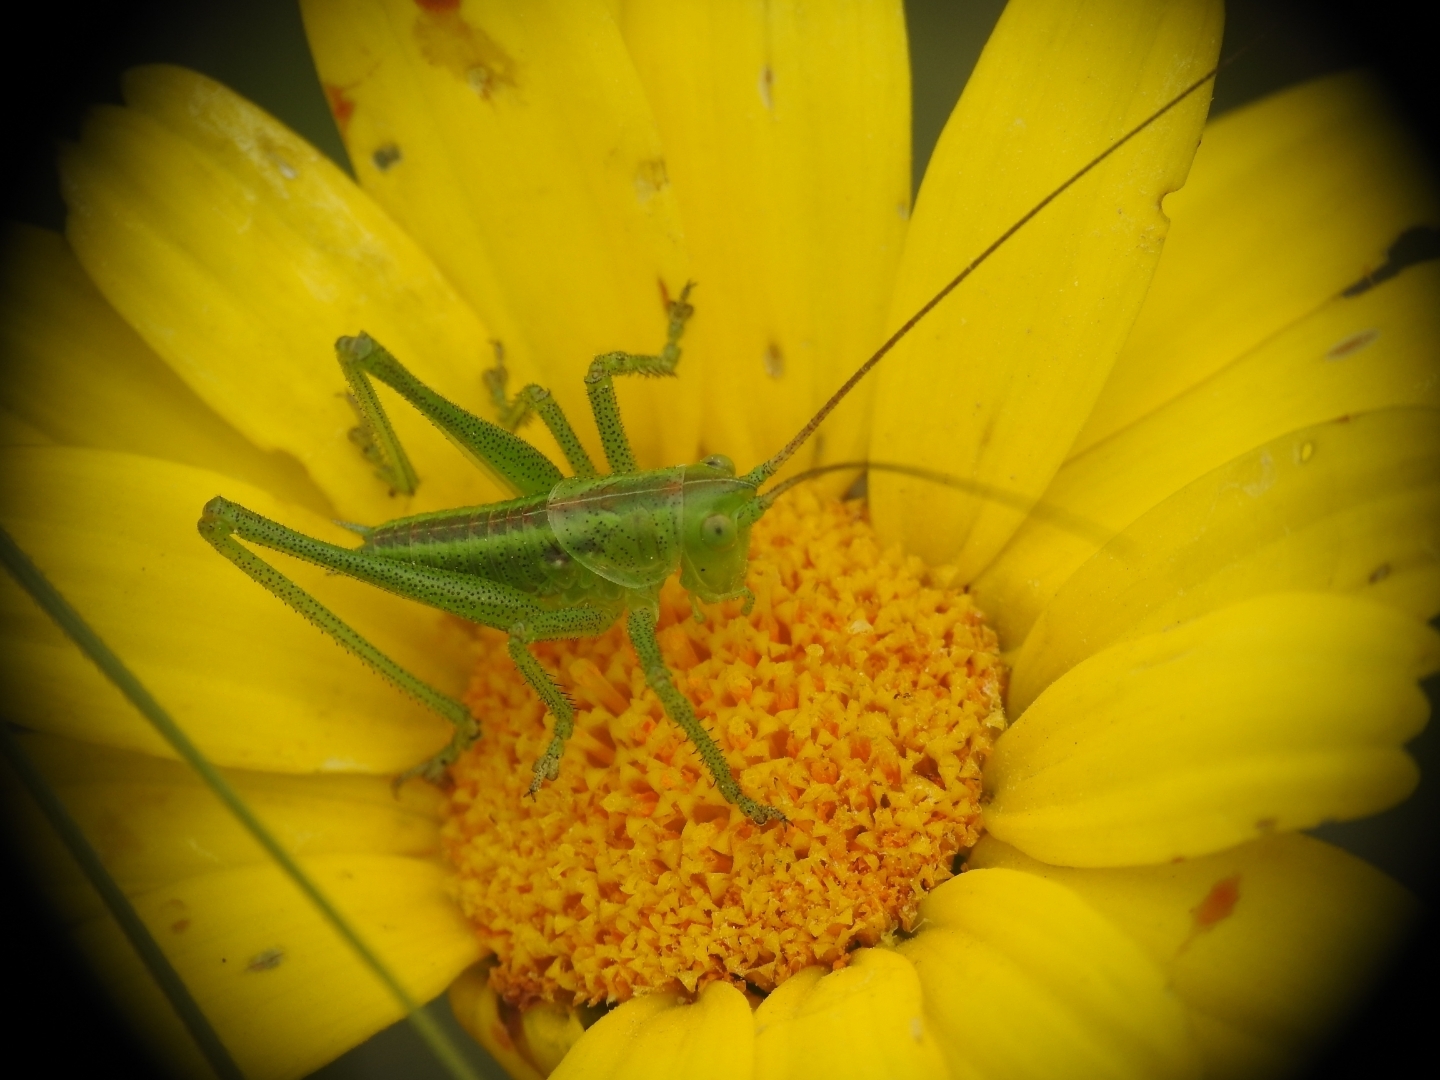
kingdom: Animalia
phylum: Arthropoda
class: Insecta
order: Orthoptera
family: Tettigoniidae
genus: Tettigonia
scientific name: Tettigonia viridissima
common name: Great green bush-cricket
